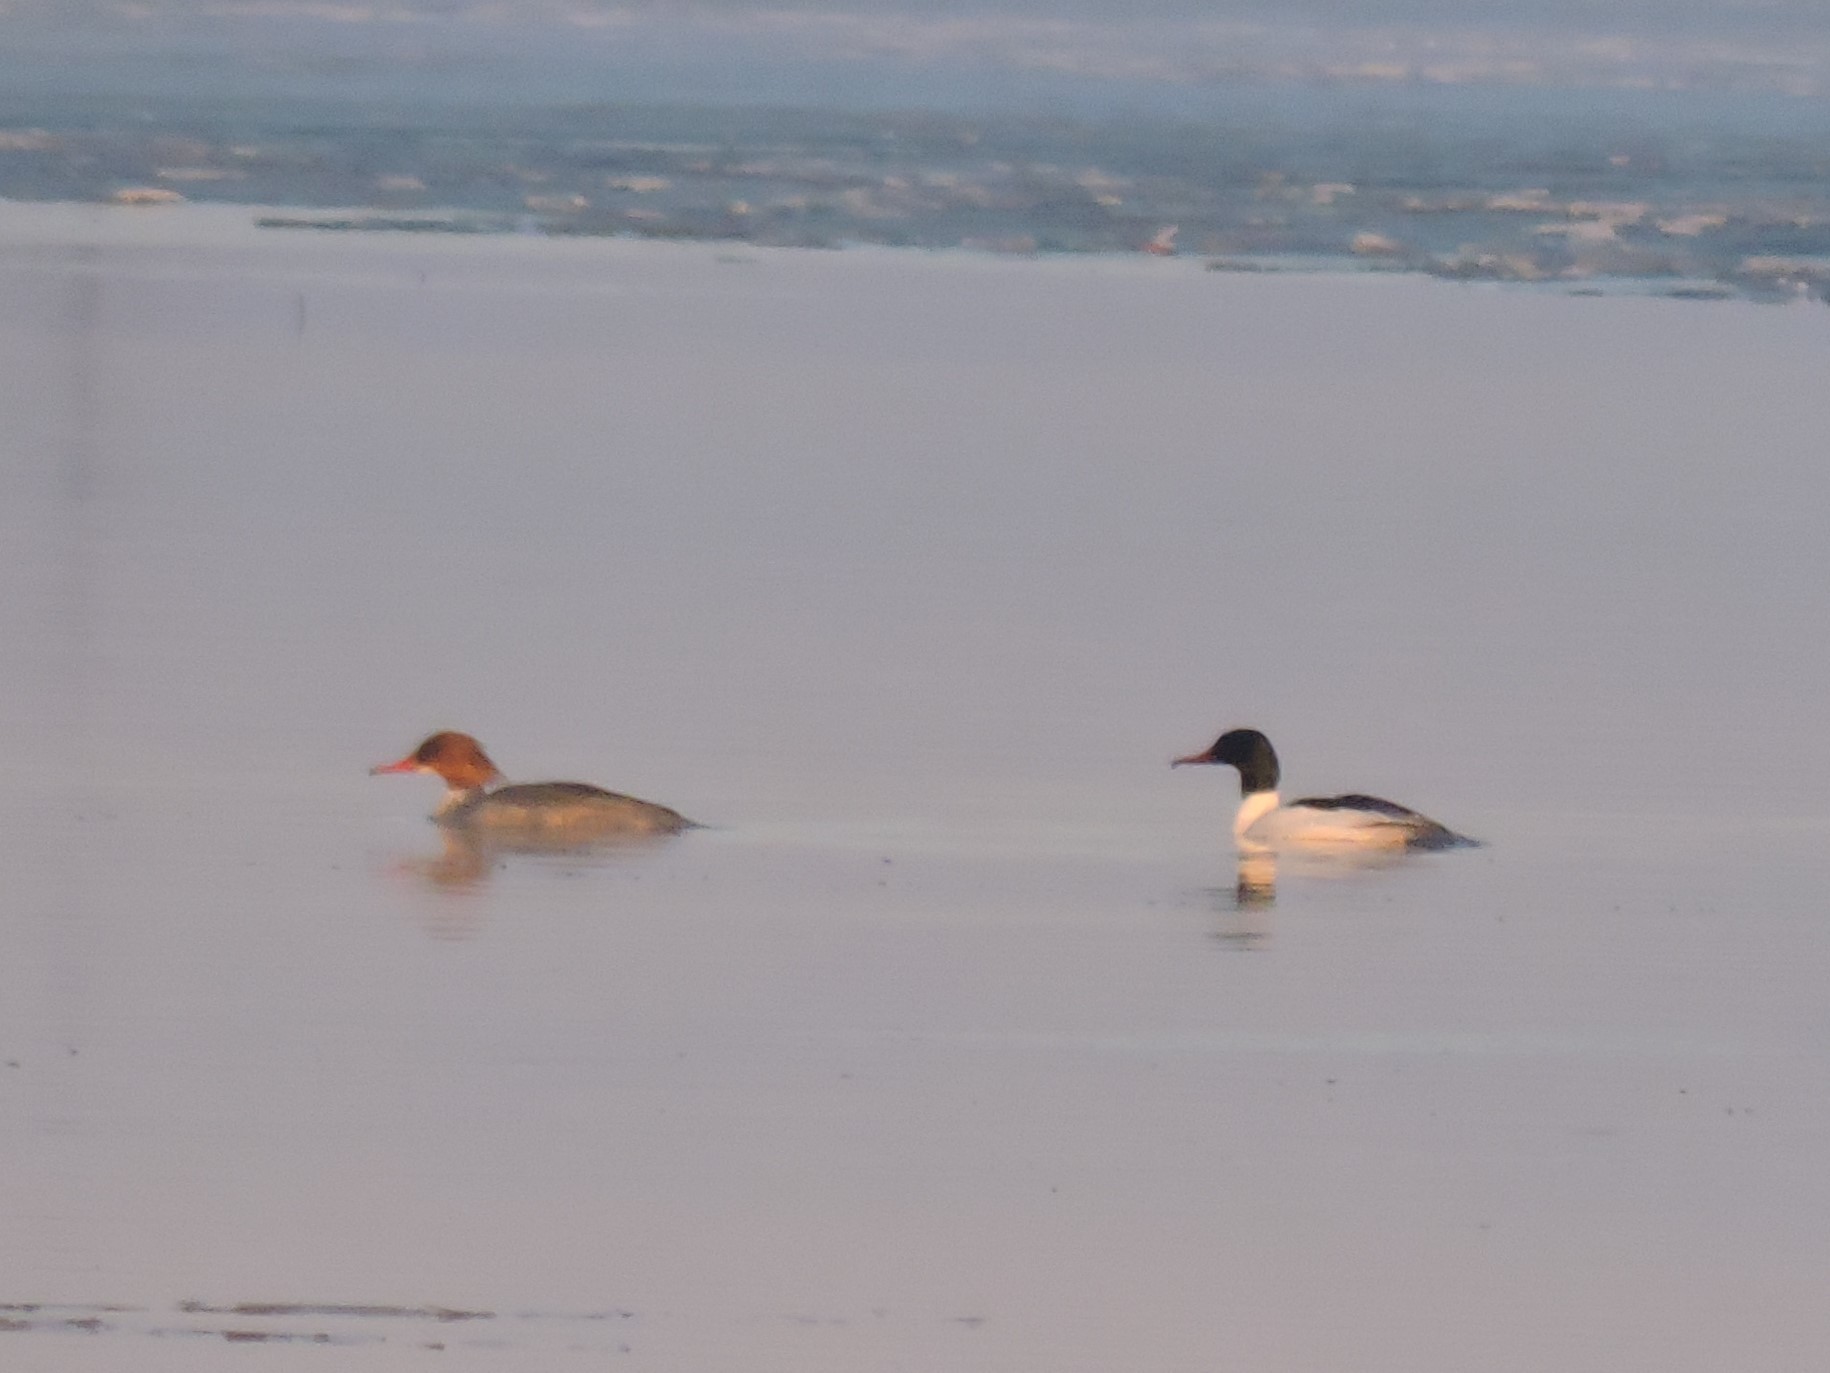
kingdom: Animalia
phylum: Chordata
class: Aves
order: Anseriformes
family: Anatidae
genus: Mergus
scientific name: Mergus merganser
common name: Common merganser
